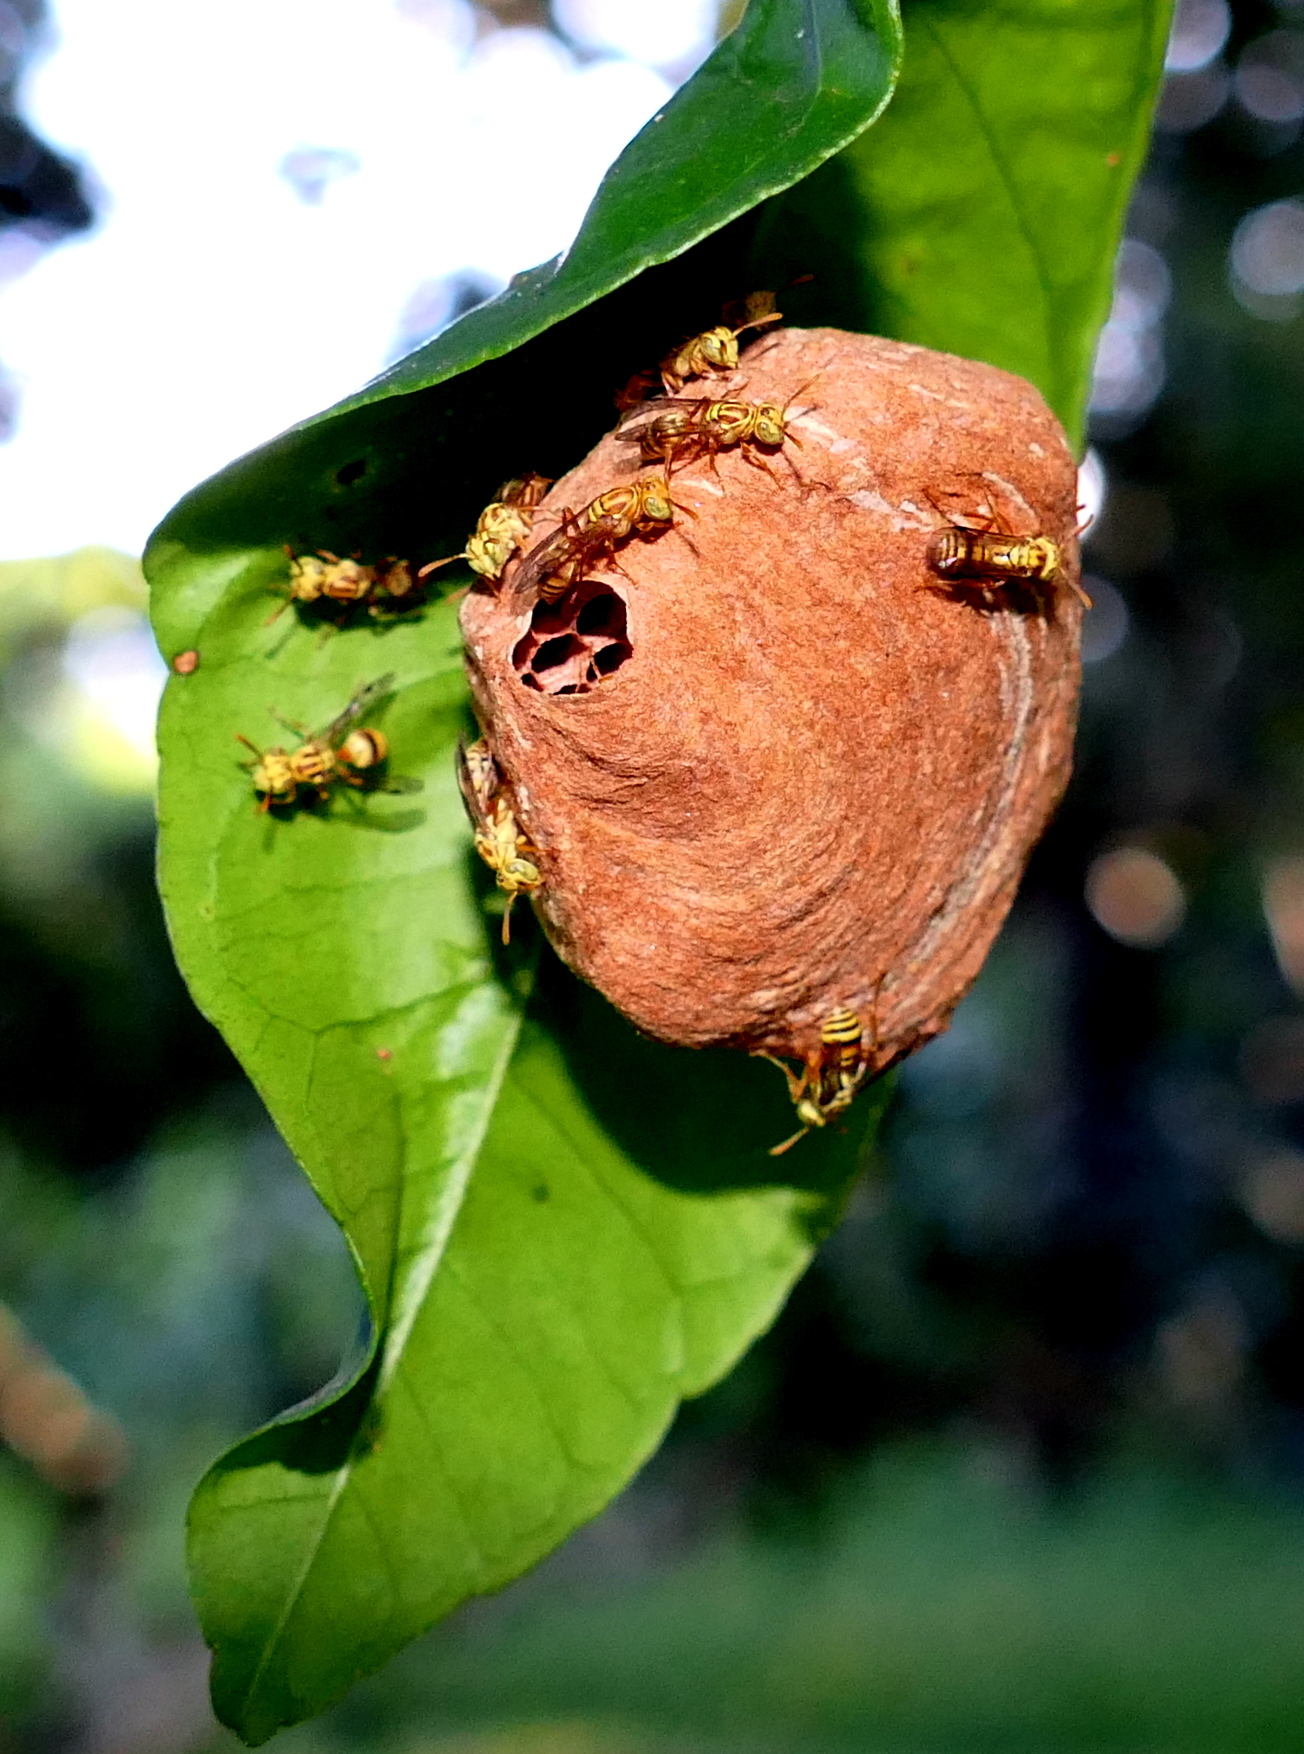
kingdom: Animalia
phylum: Arthropoda
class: Insecta
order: Hymenoptera
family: Vespidae
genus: Protopolybia
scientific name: Protopolybia potiguara
